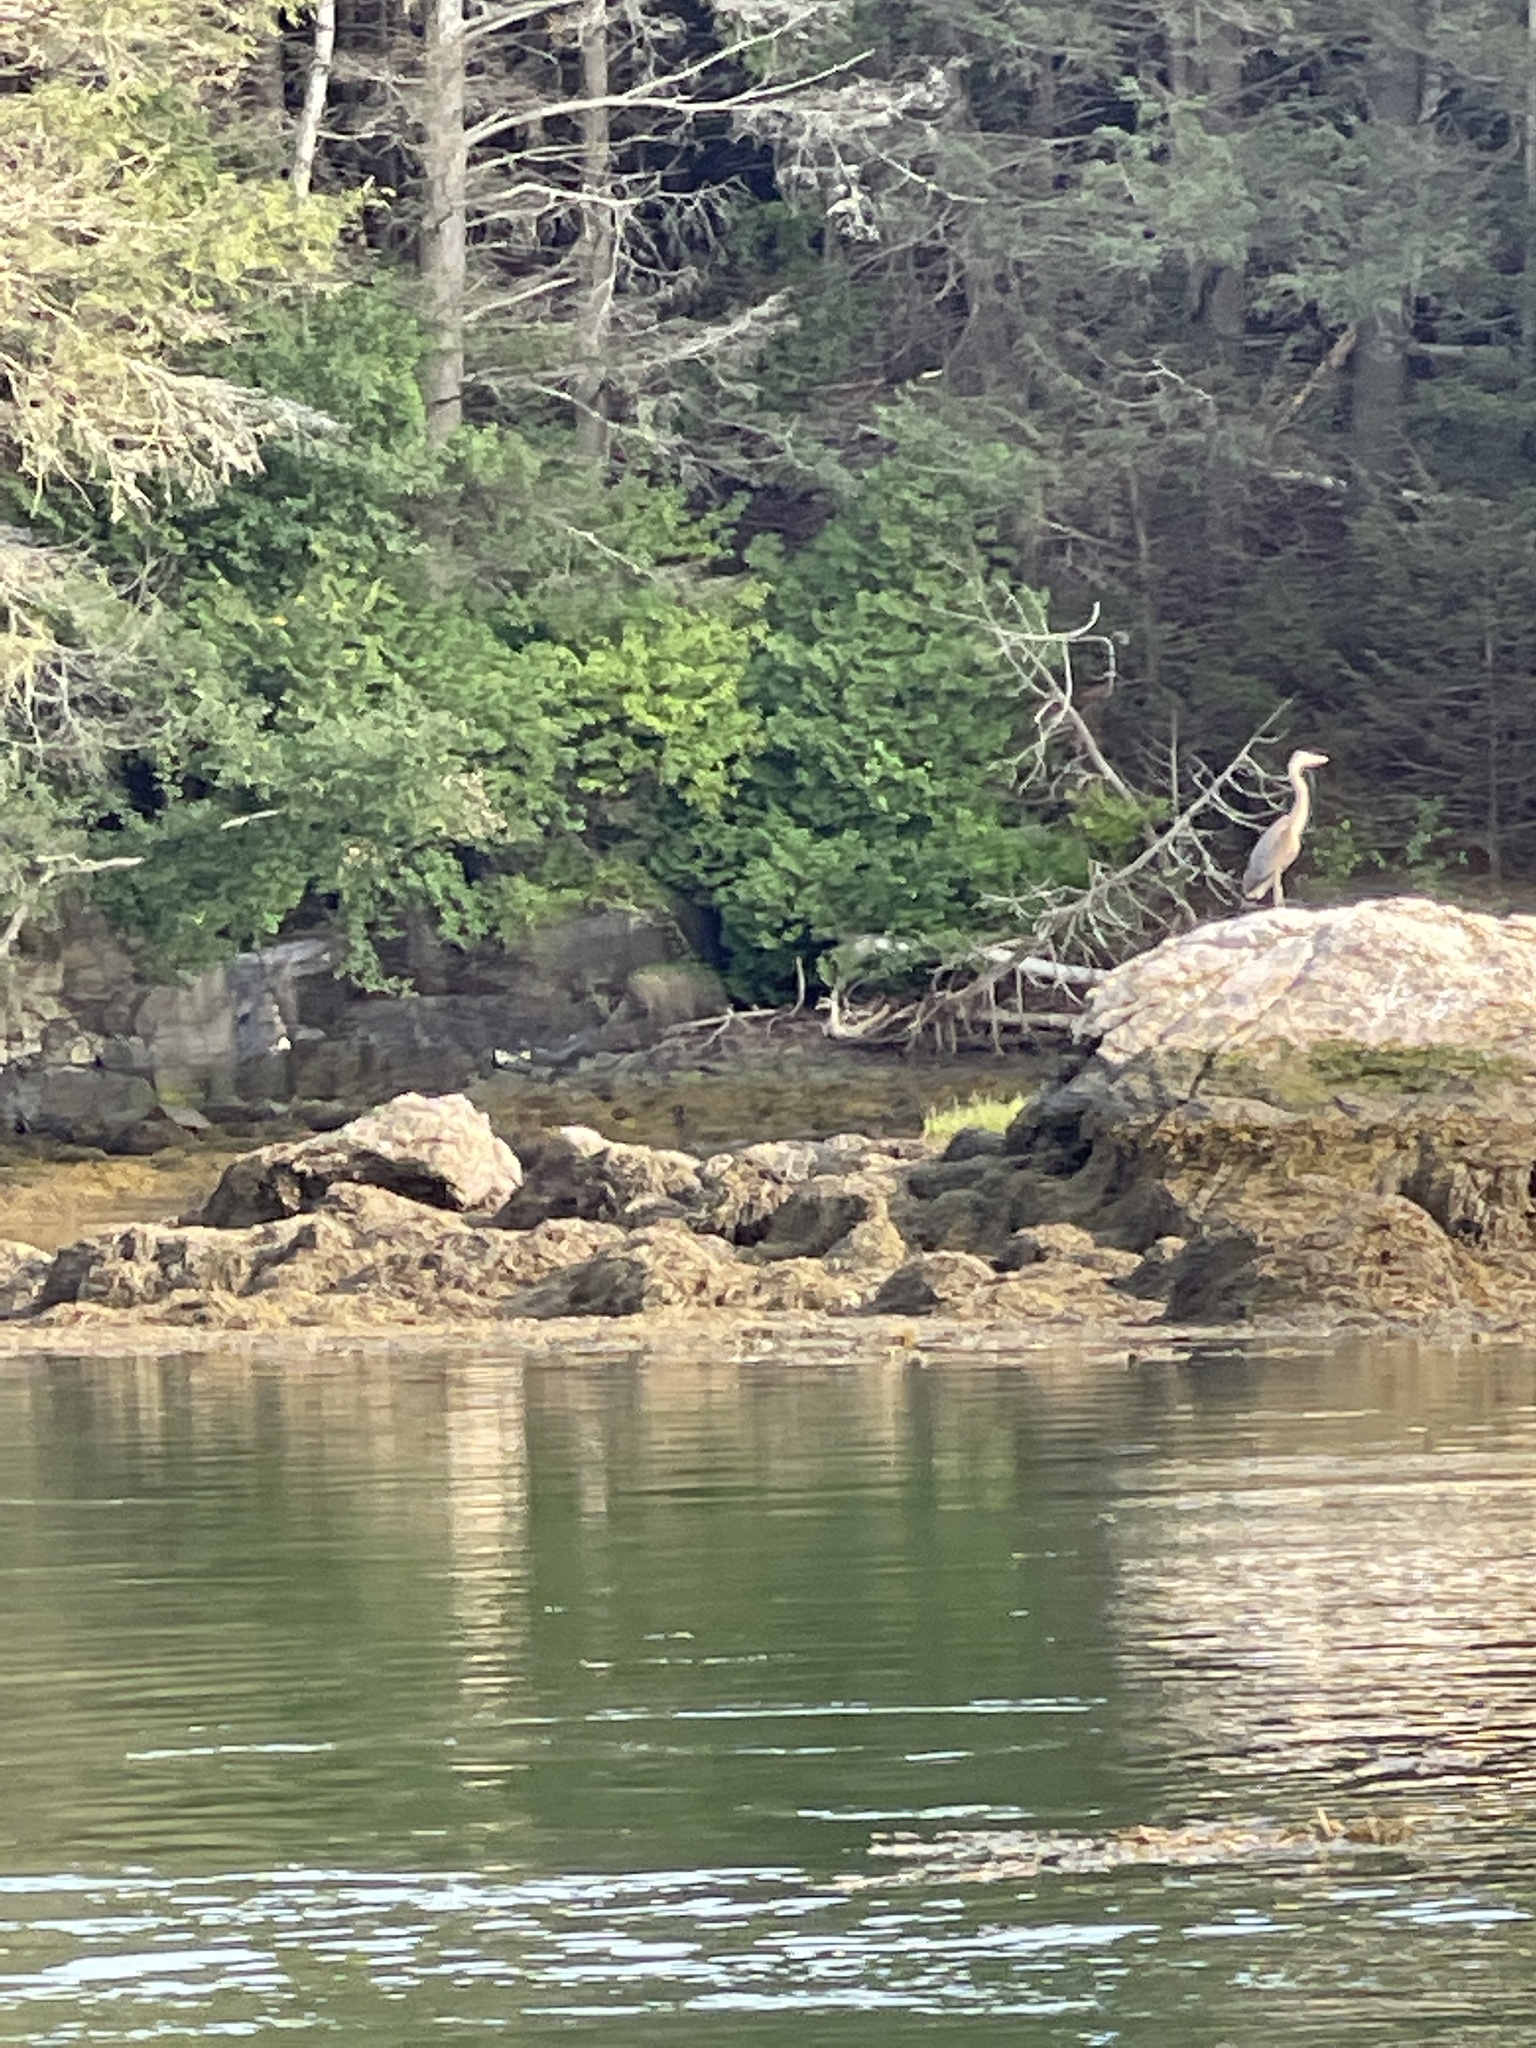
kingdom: Animalia
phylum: Chordata
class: Aves
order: Pelecaniformes
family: Ardeidae
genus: Ardea
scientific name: Ardea herodias
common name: Great blue heron
